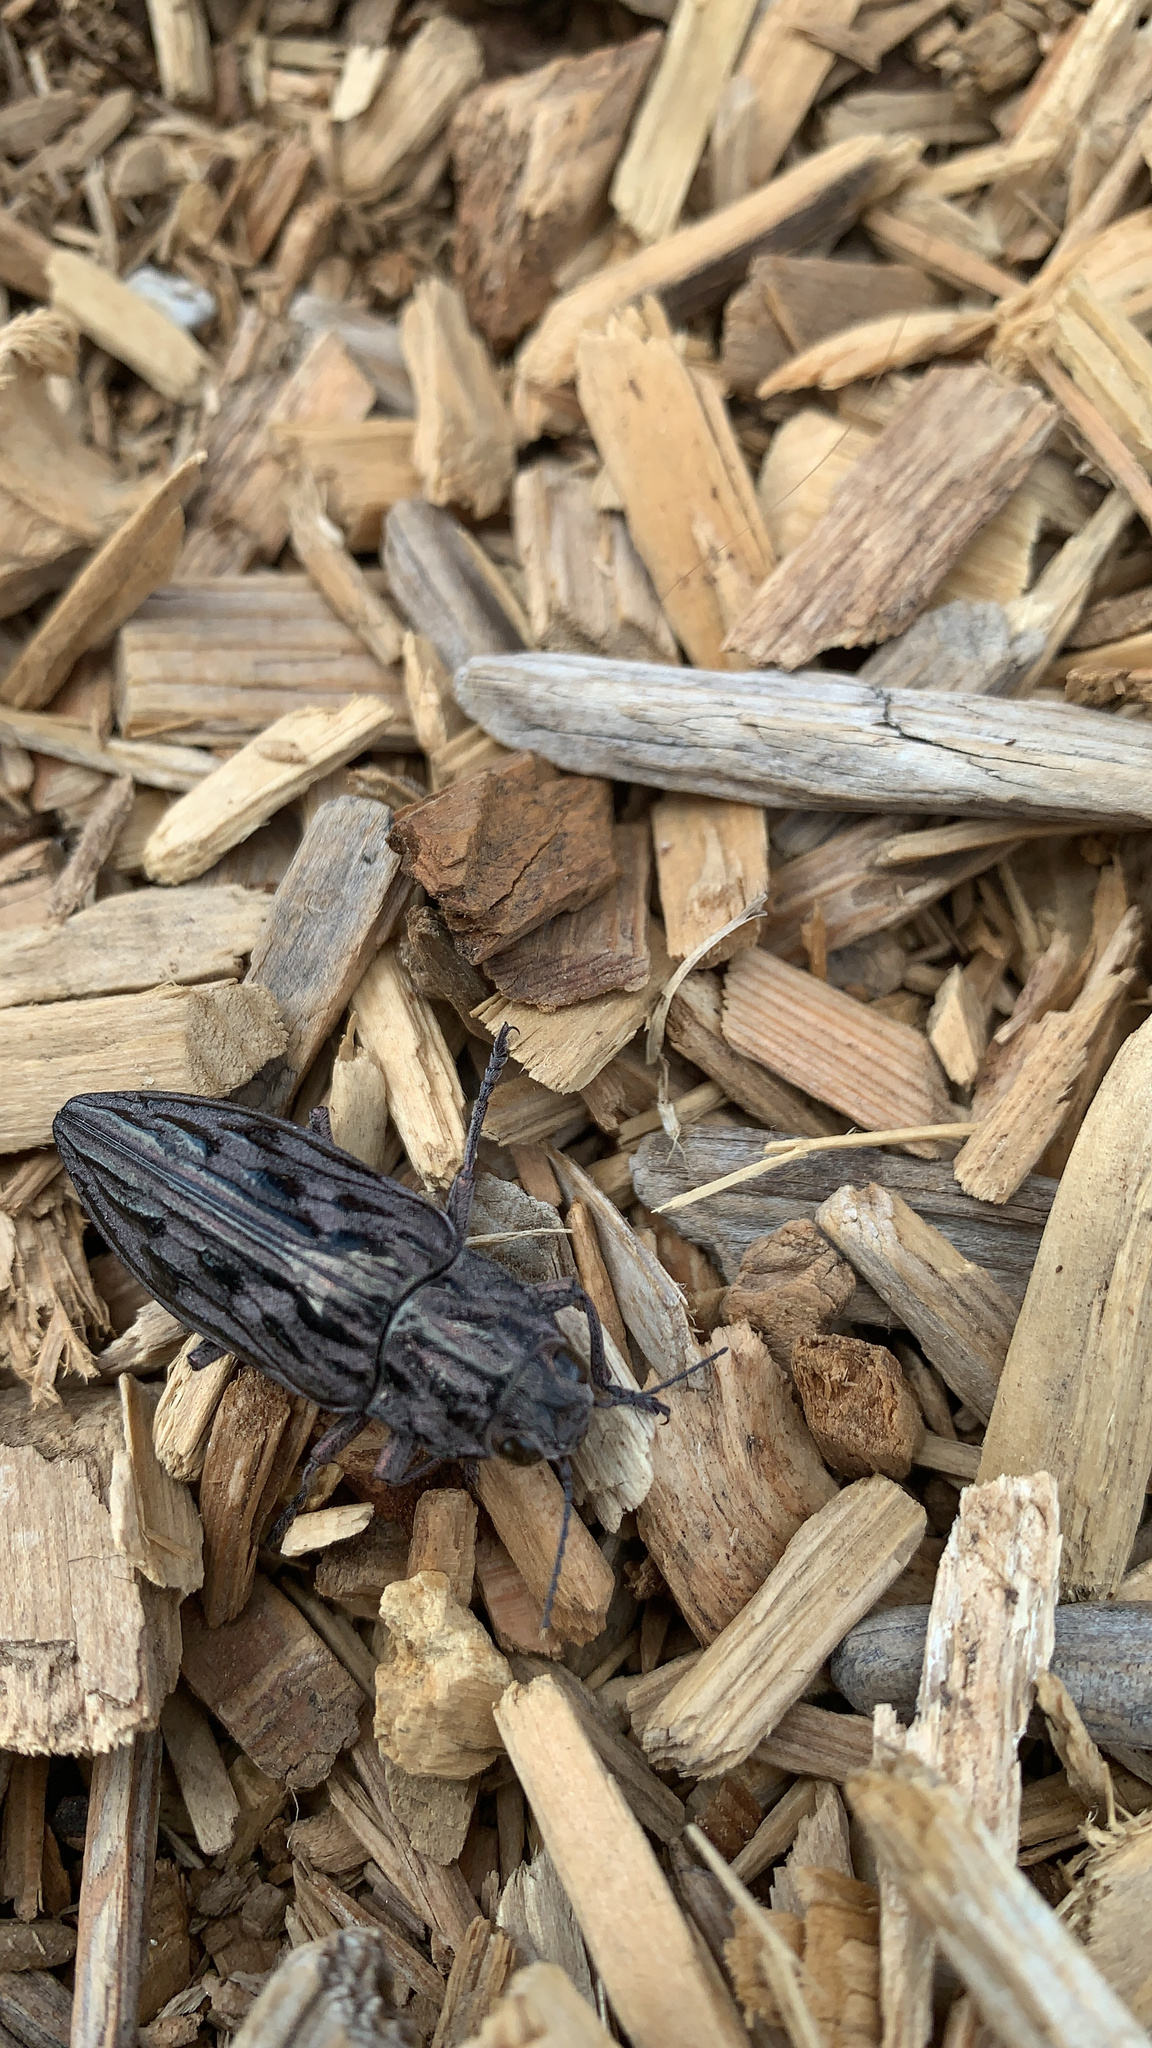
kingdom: Animalia
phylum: Arthropoda
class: Insecta
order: Coleoptera
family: Buprestidae
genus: Chalcophora
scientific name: Chalcophora angulicollis
